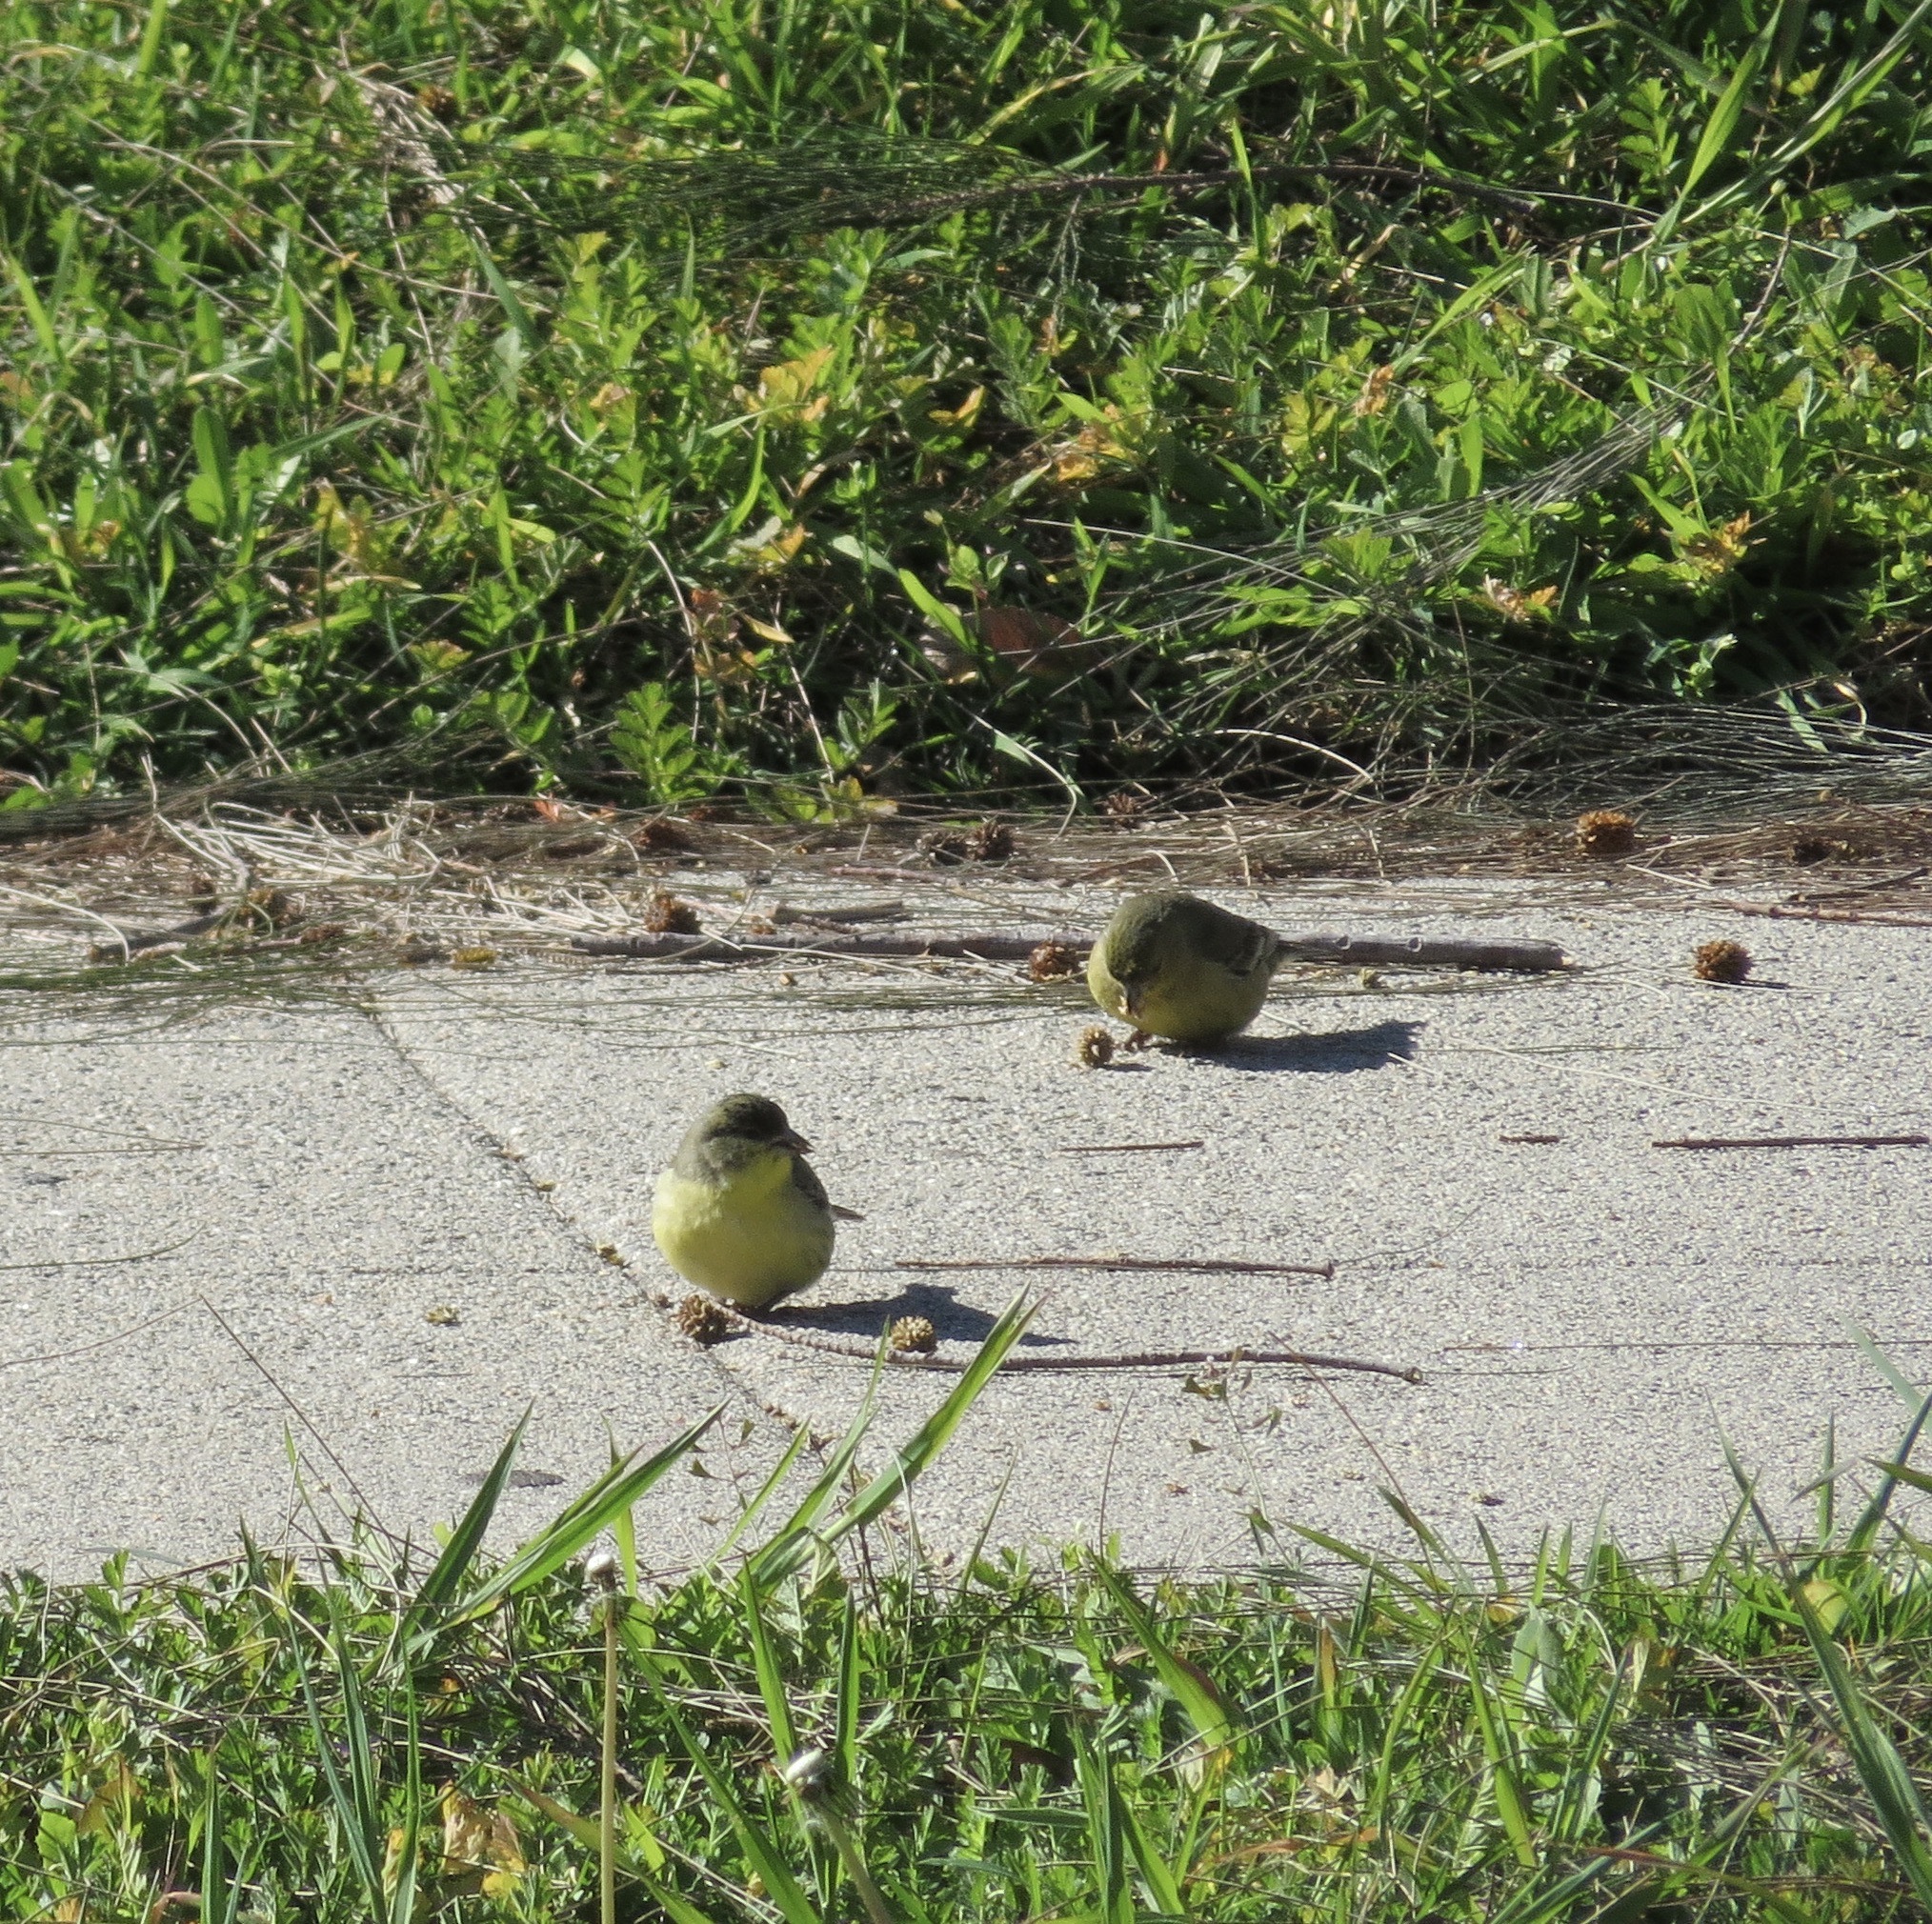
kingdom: Animalia
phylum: Chordata
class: Aves
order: Passeriformes
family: Fringillidae
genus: Spinus
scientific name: Spinus psaltria
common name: Lesser goldfinch
